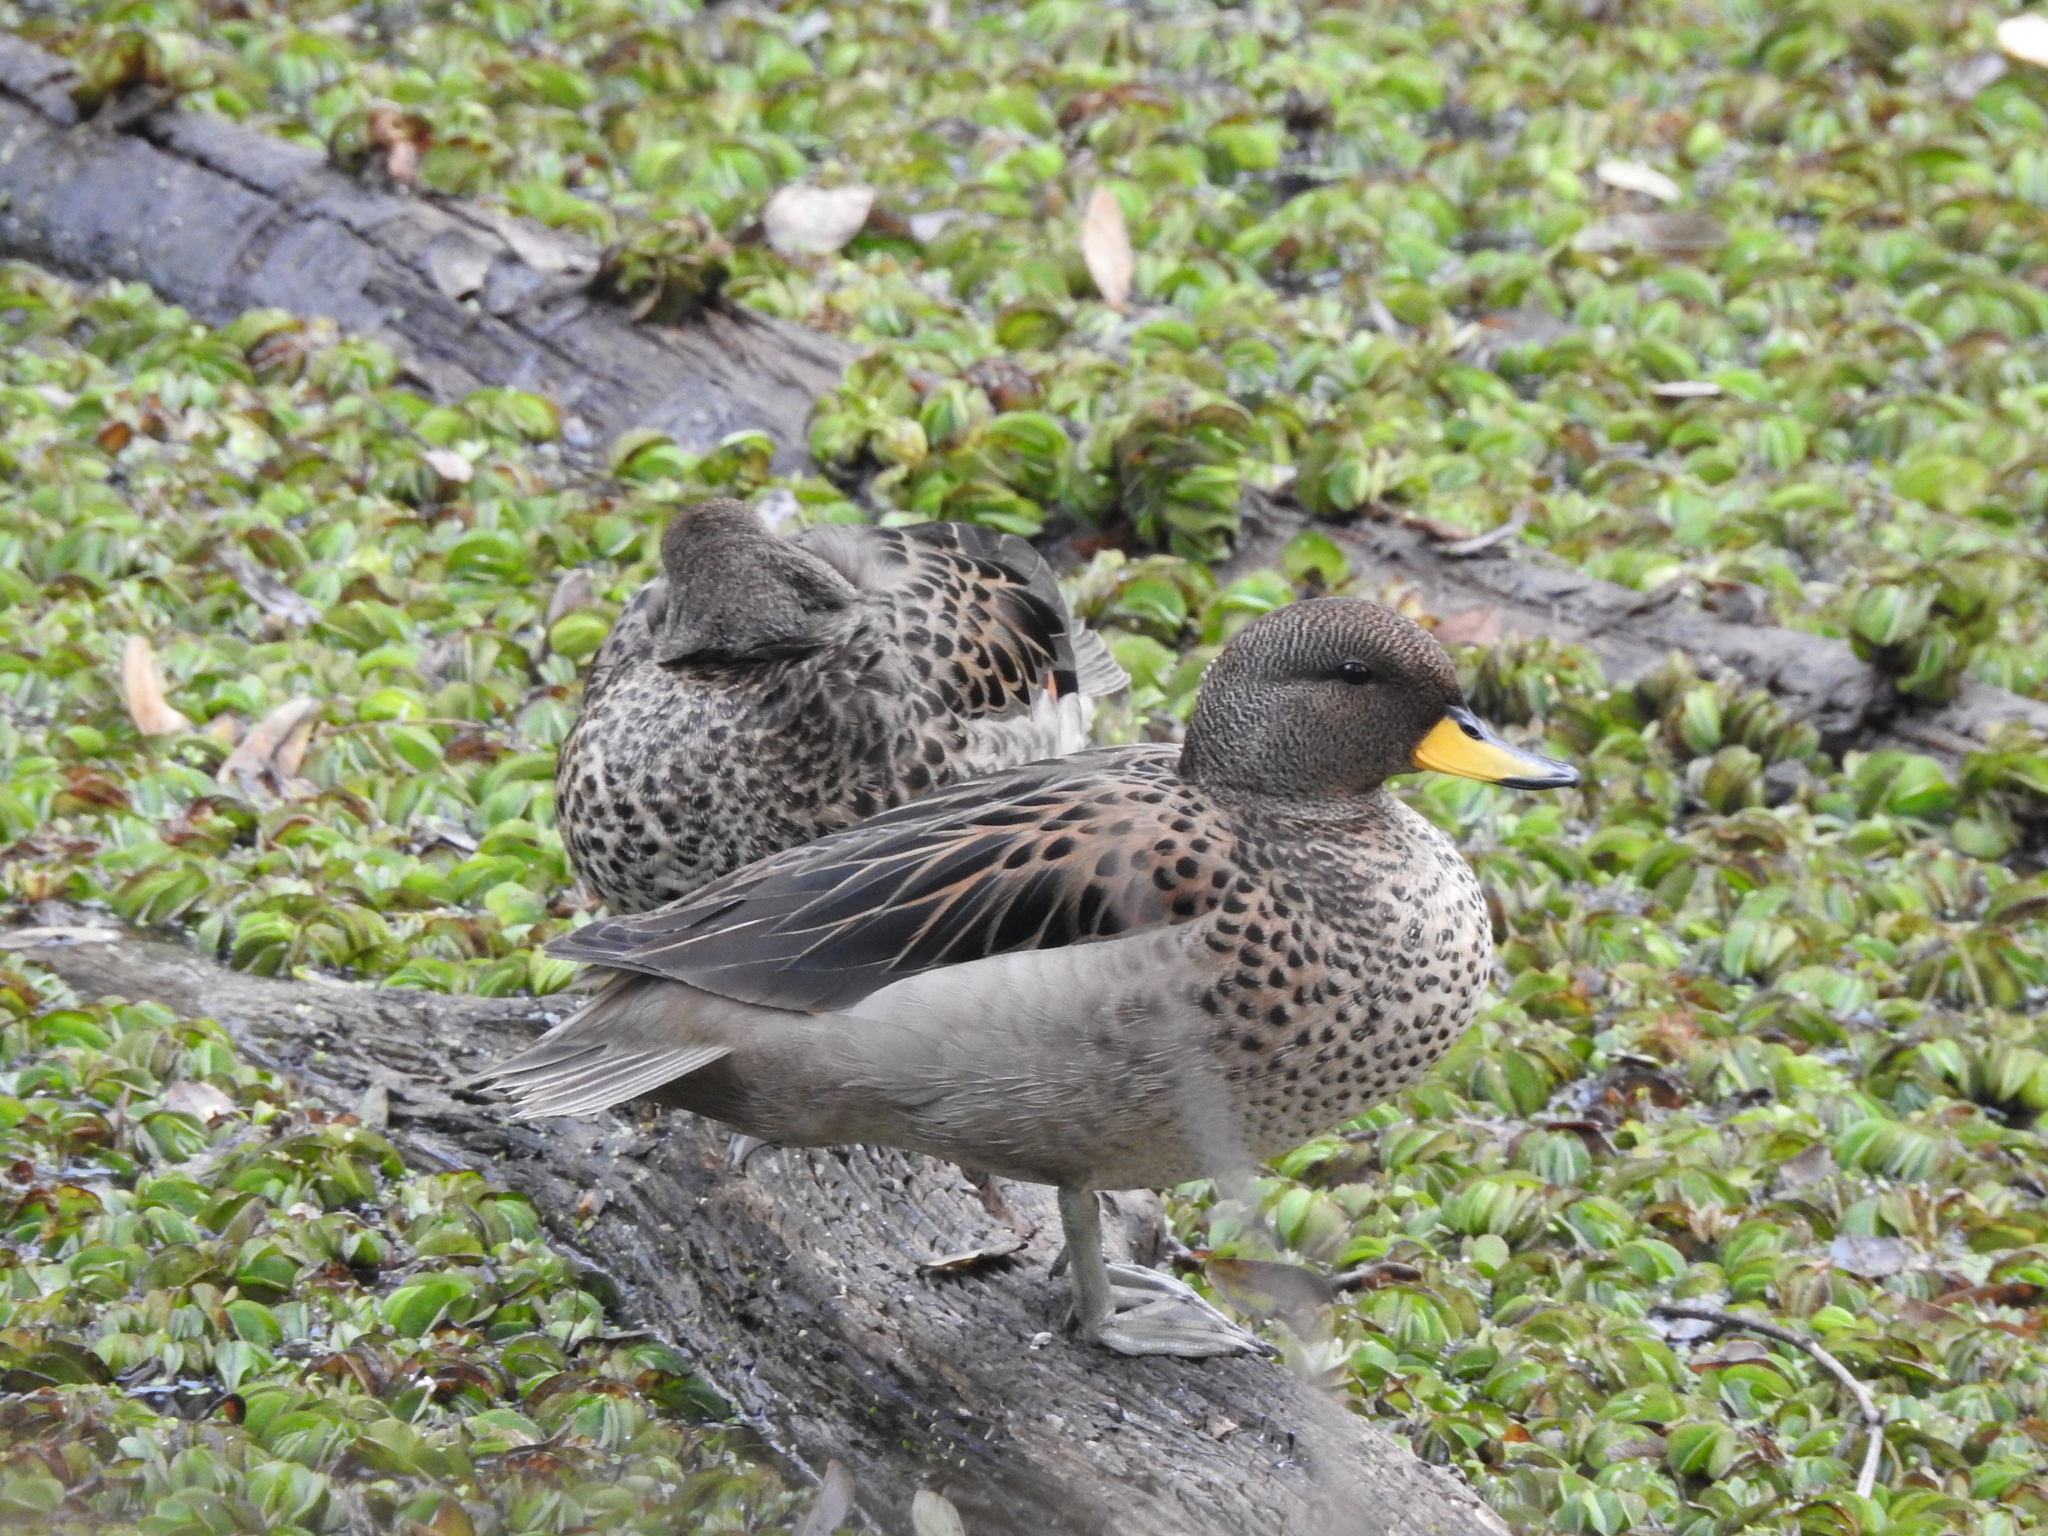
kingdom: Animalia
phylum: Chordata
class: Aves
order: Anseriformes
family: Anatidae
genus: Anas
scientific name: Anas flavirostris
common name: Yellow-billed teal
